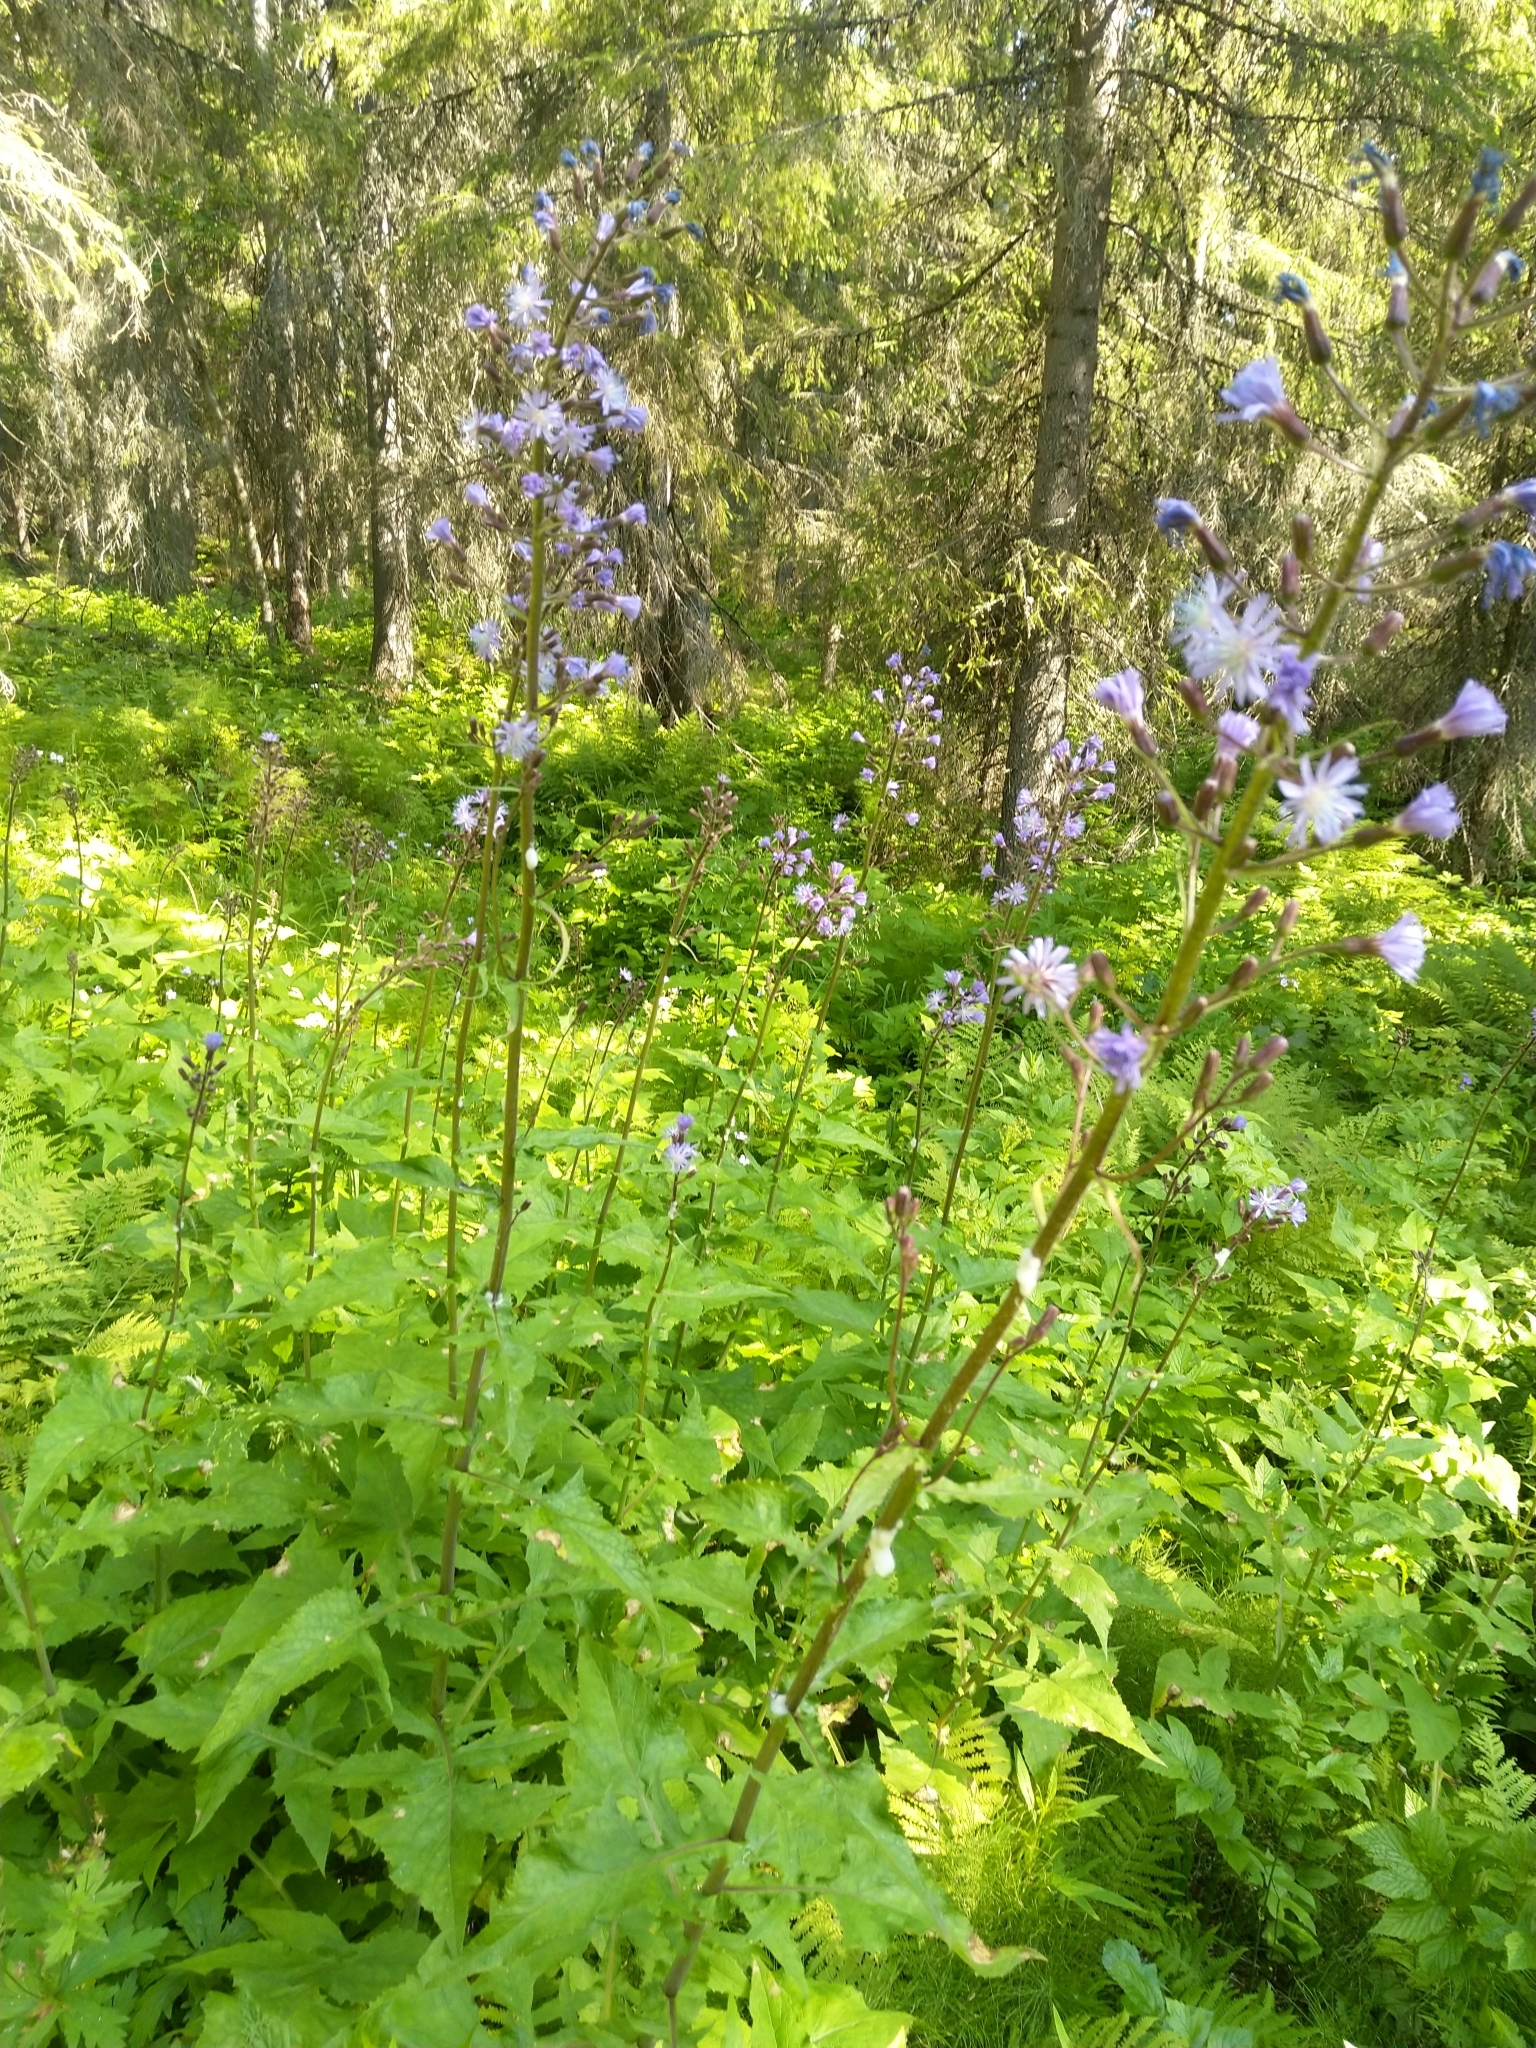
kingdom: Plantae
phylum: Tracheophyta
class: Magnoliopsida
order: Asterales
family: Asteraceae
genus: Cicerbita
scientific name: Cicerbita alpina
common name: Alpine blue-sow-thistle
